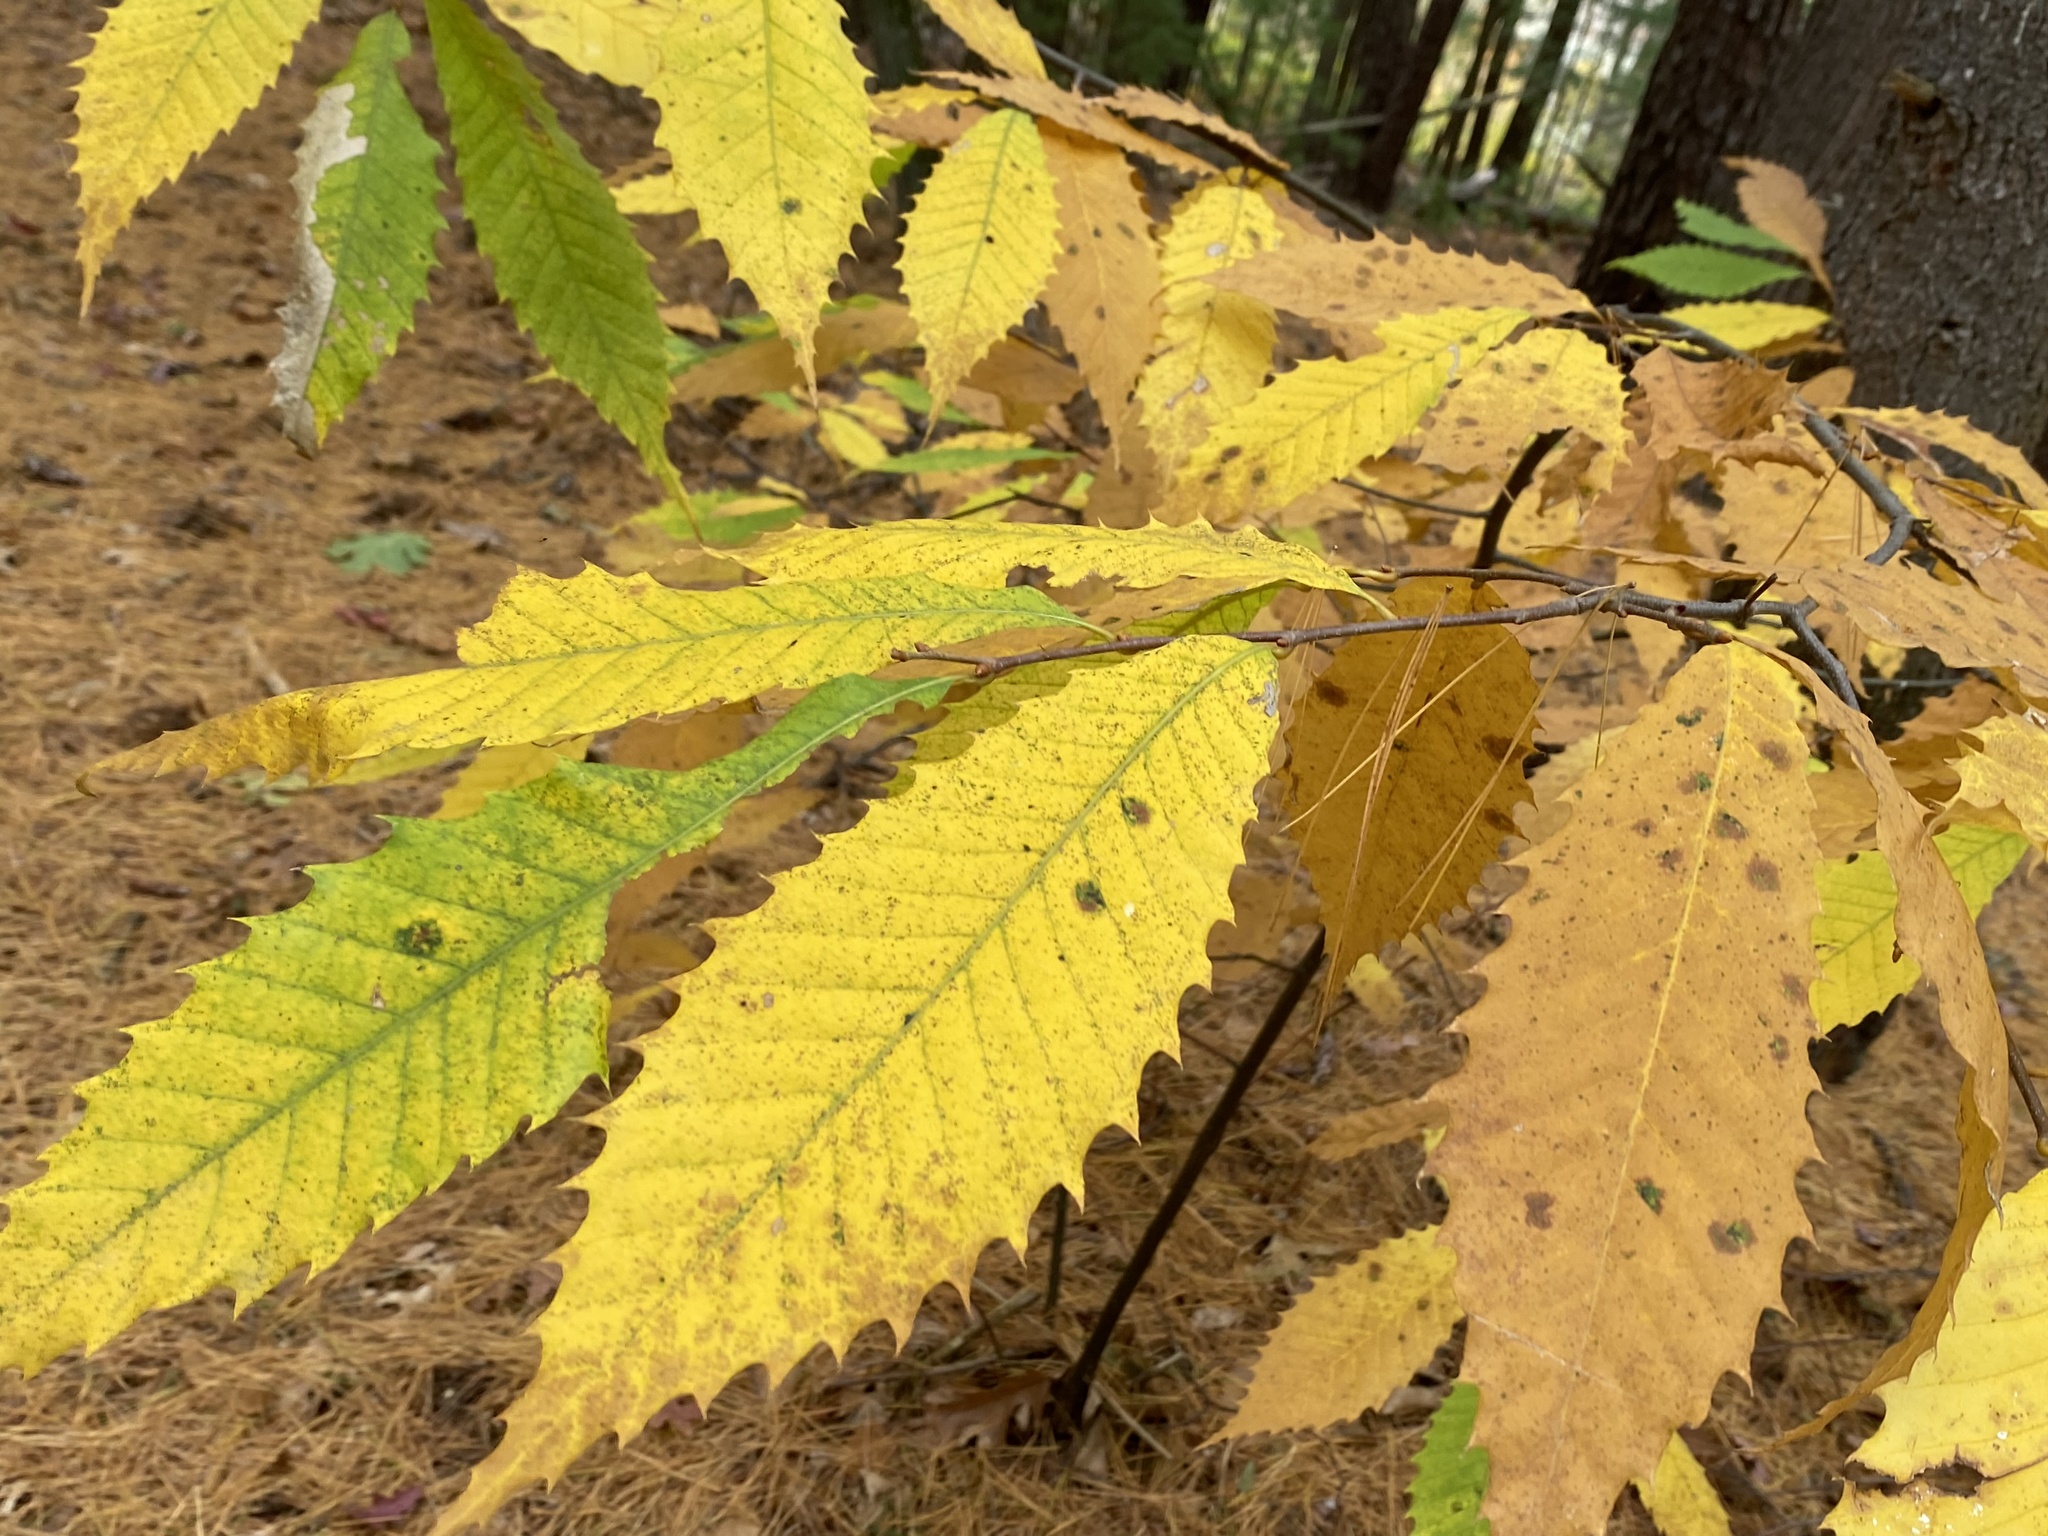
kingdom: Plantae
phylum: Tracheophyta
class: Magnoliopsida
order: Fagales
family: Fagaceae
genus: Castanea
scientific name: Castanea dentata
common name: American chestnut
